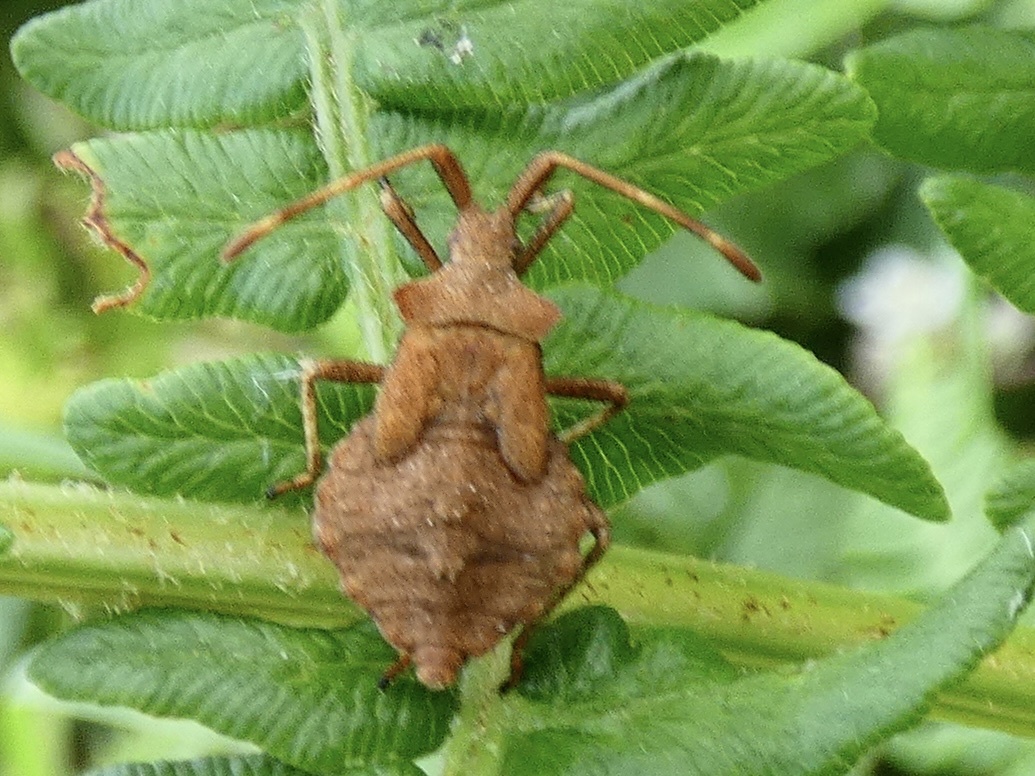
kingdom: Animalia
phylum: Arthropoda
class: Insecta
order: Hemiptera
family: Coreidae
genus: Coreus
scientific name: Coreus marginatus
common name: Dock bug
